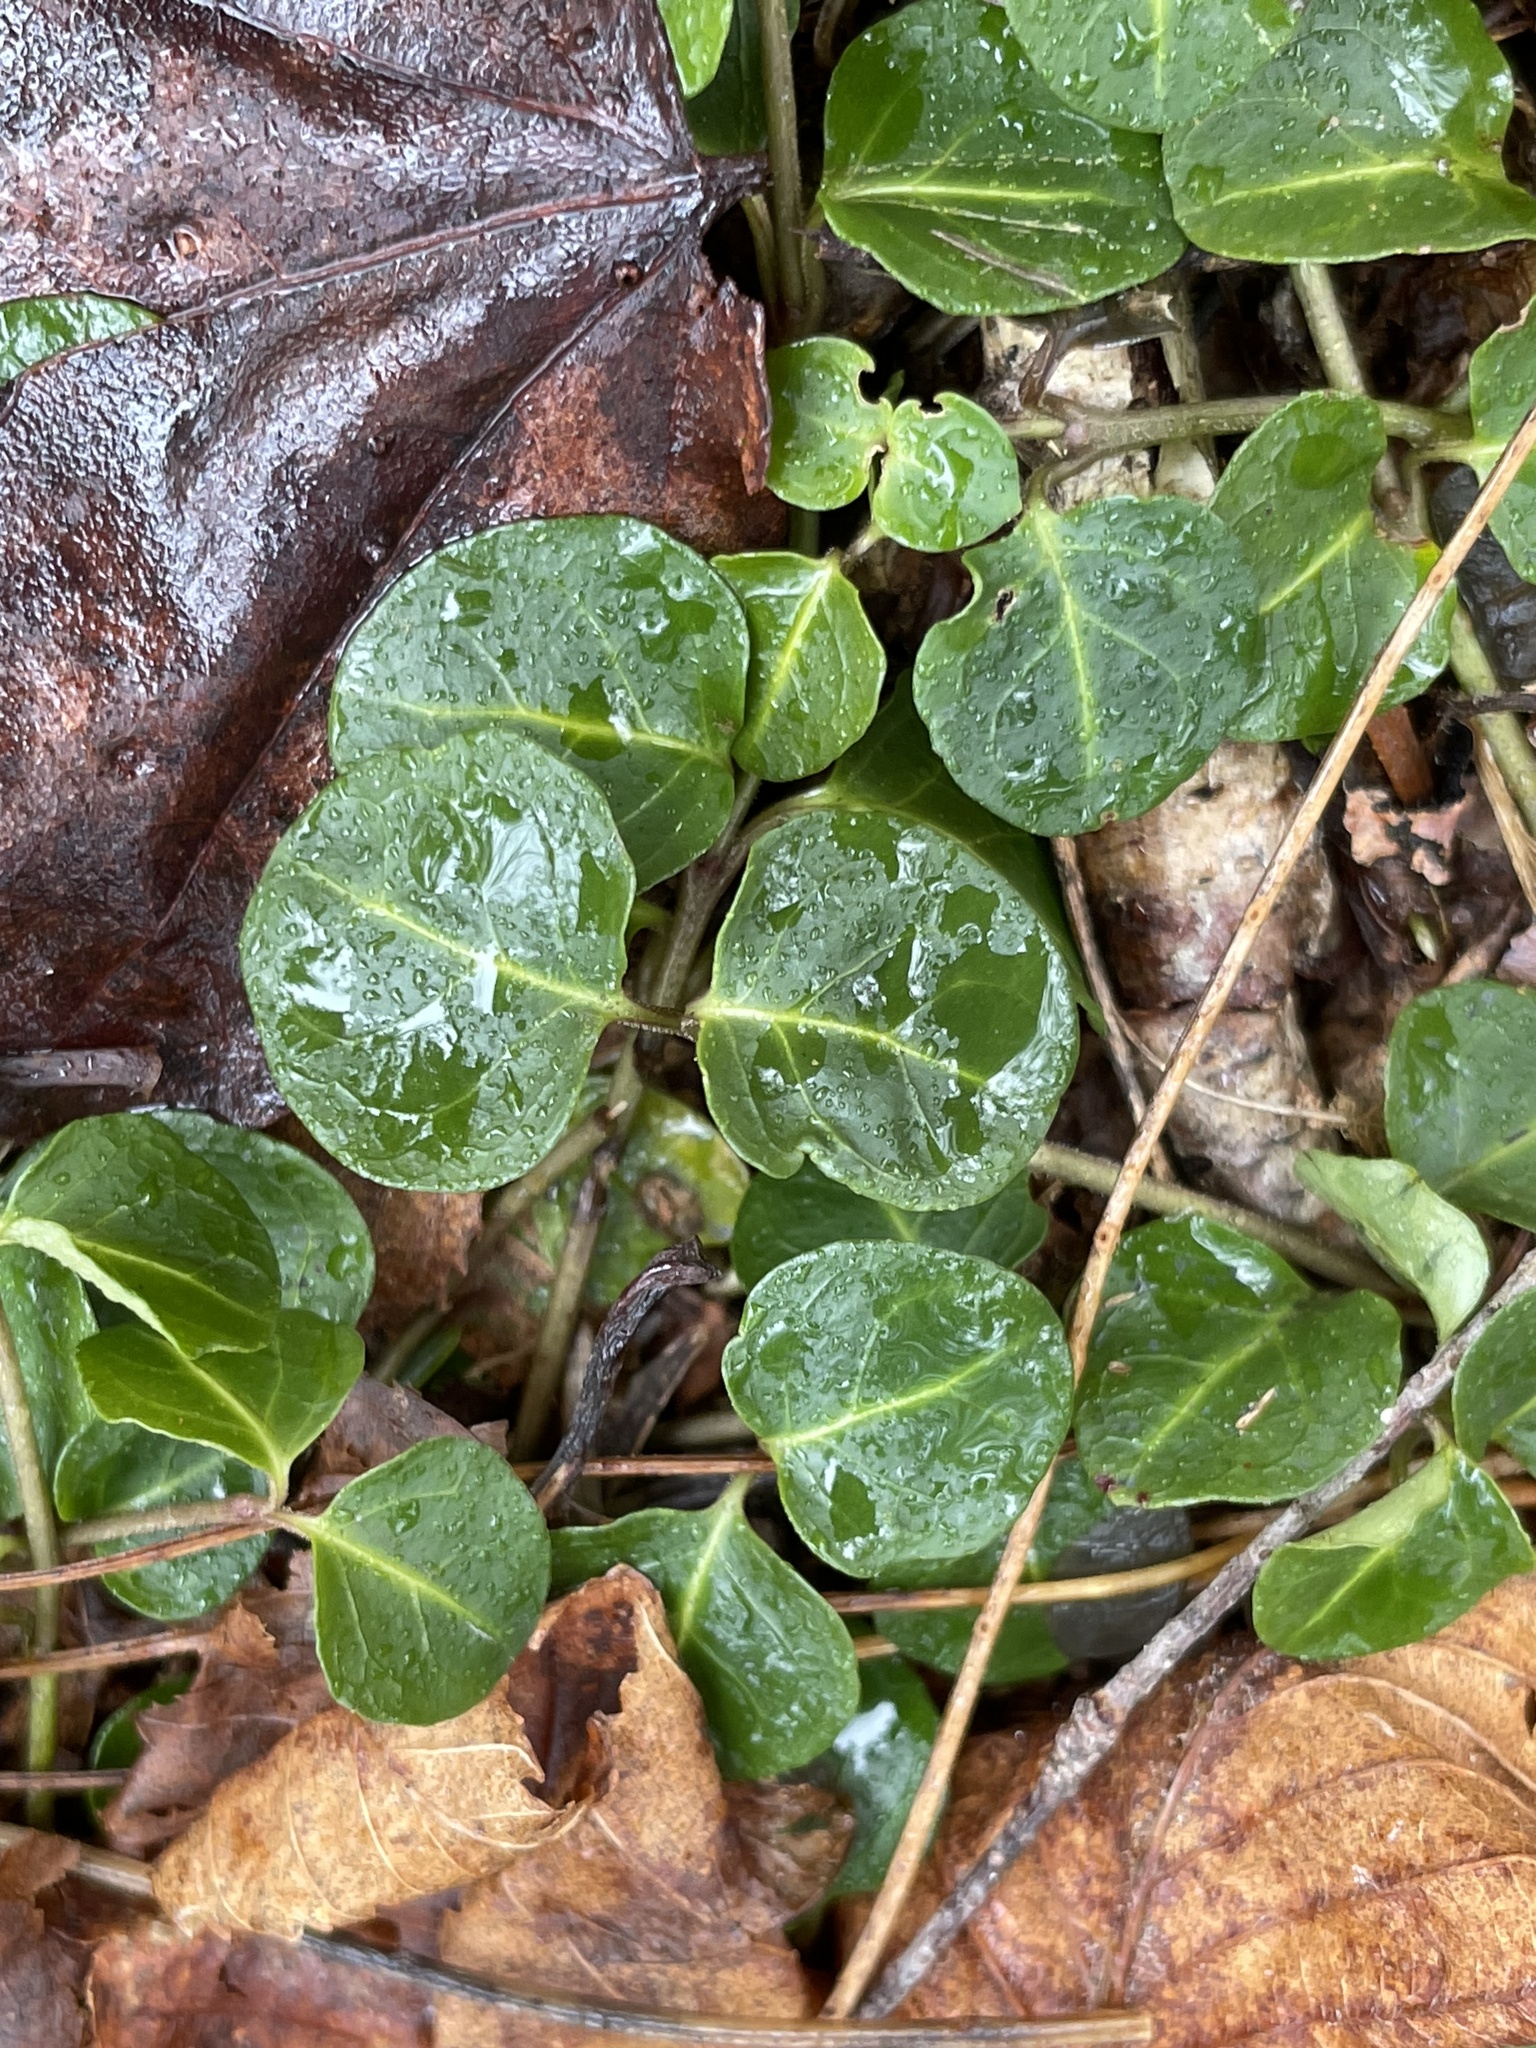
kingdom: Plantae
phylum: Tracheophyta
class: Magnoliopsida
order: Gentianales
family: Rubiaceae
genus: Mitchella
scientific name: Mitchella repens
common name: Partridge-berry
